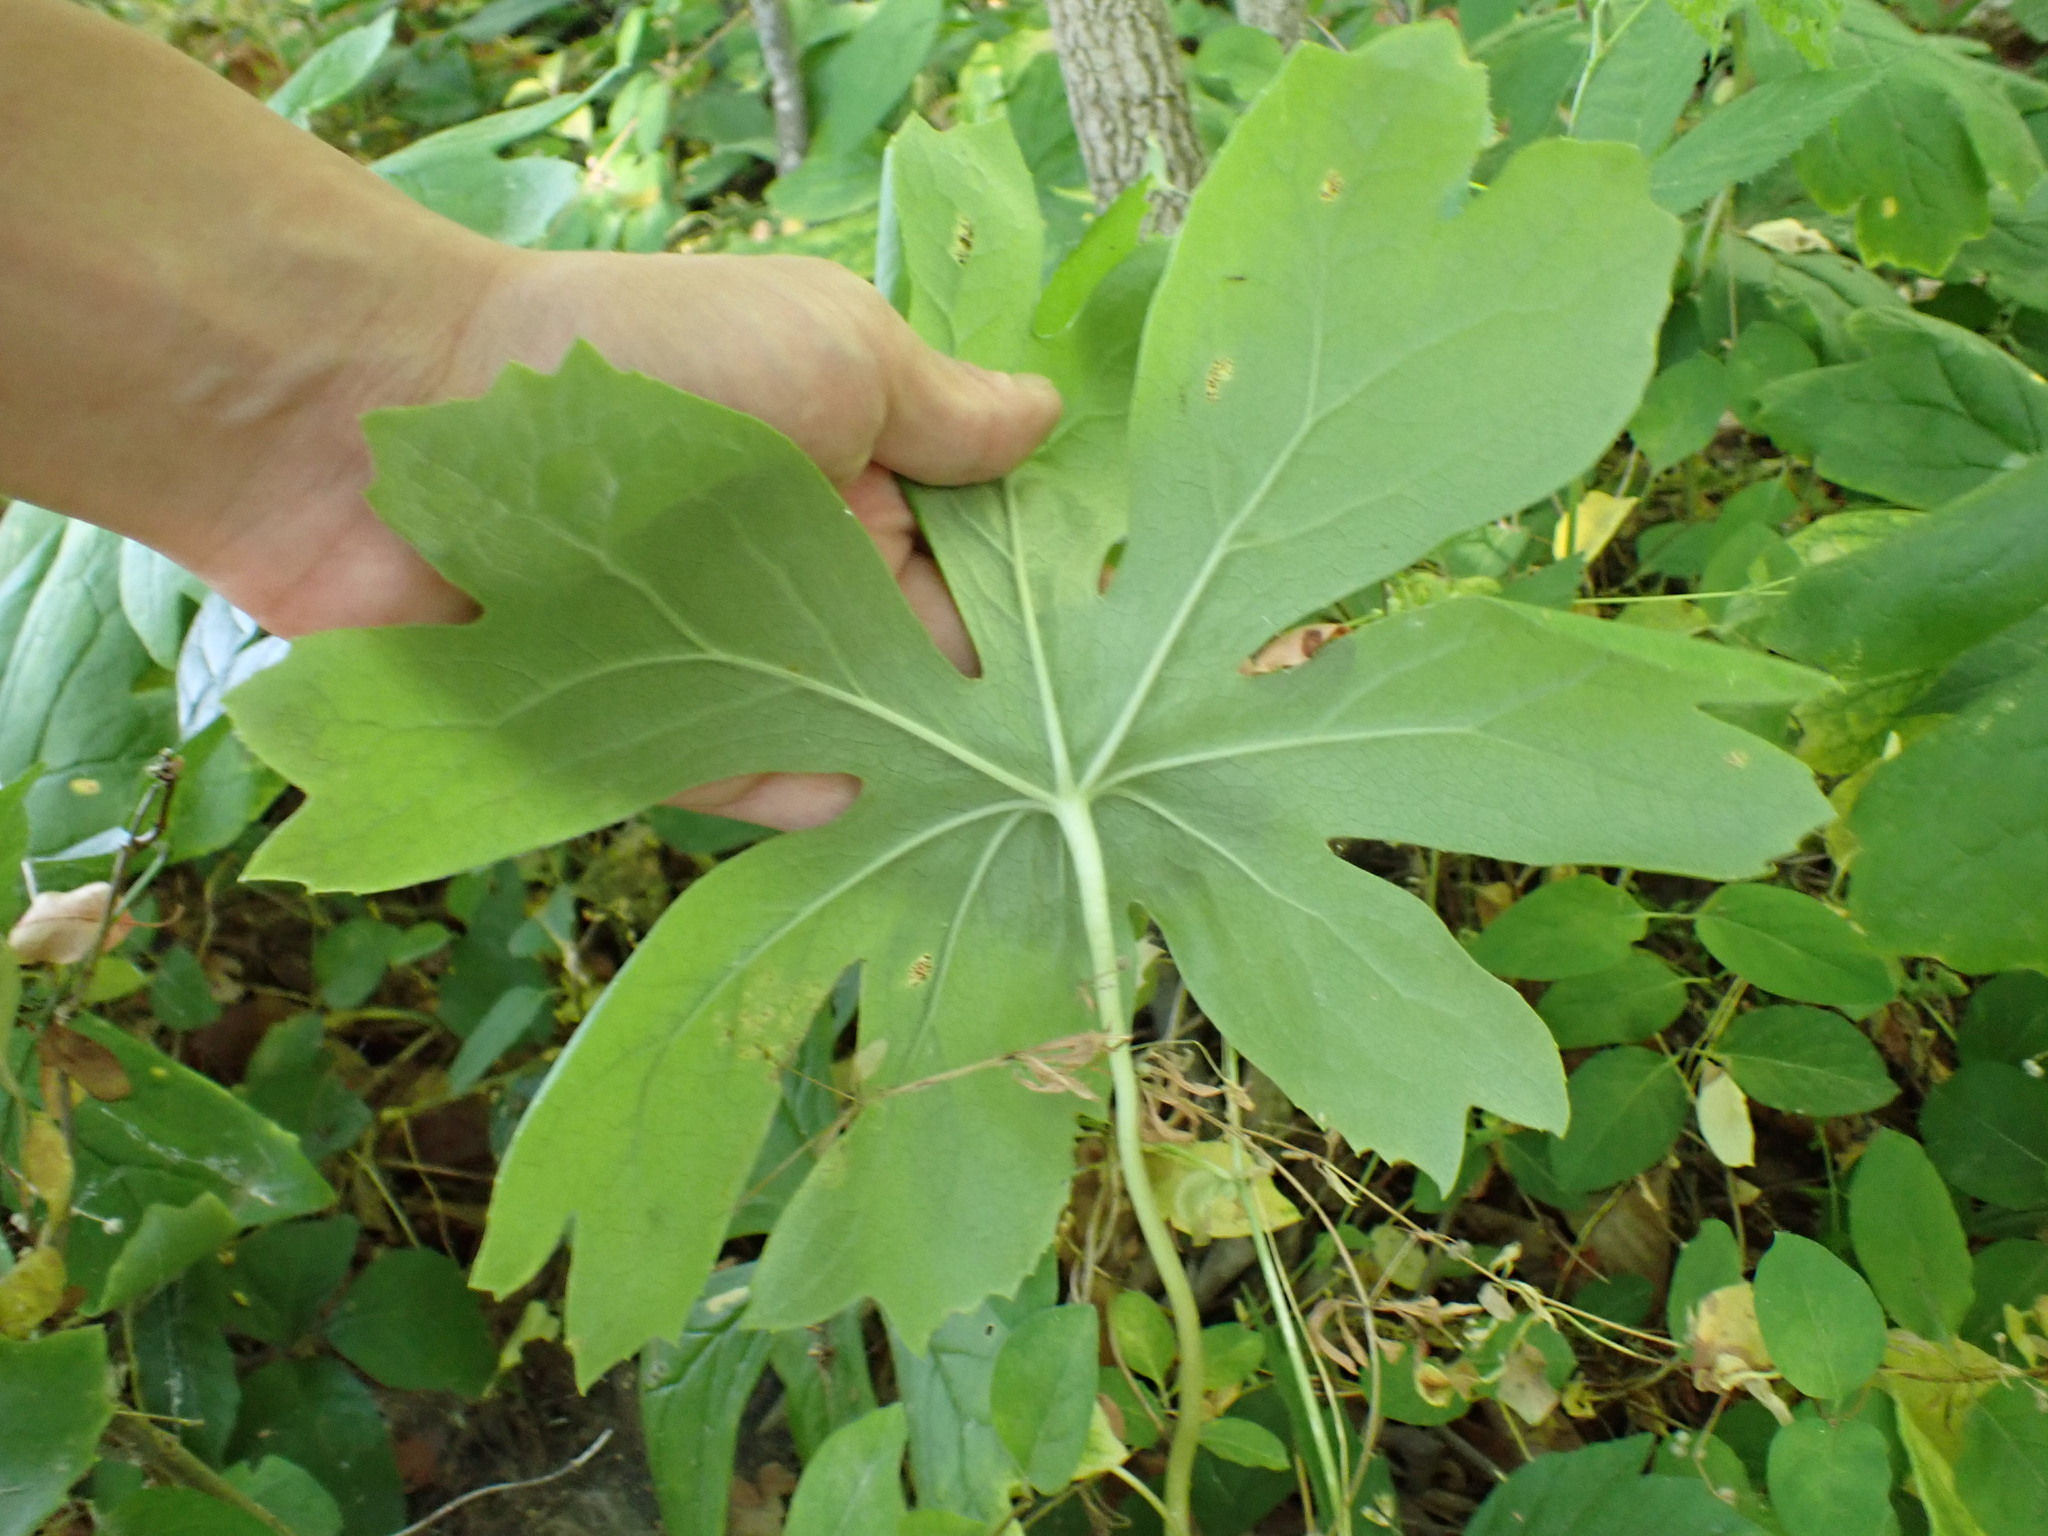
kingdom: Plantae
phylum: Tracheophyta
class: Magnoliopsida
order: Ranunculales
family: Berberidaceae
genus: Podophyllum
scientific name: Podophyllum peltatum
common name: Wild mandrake
